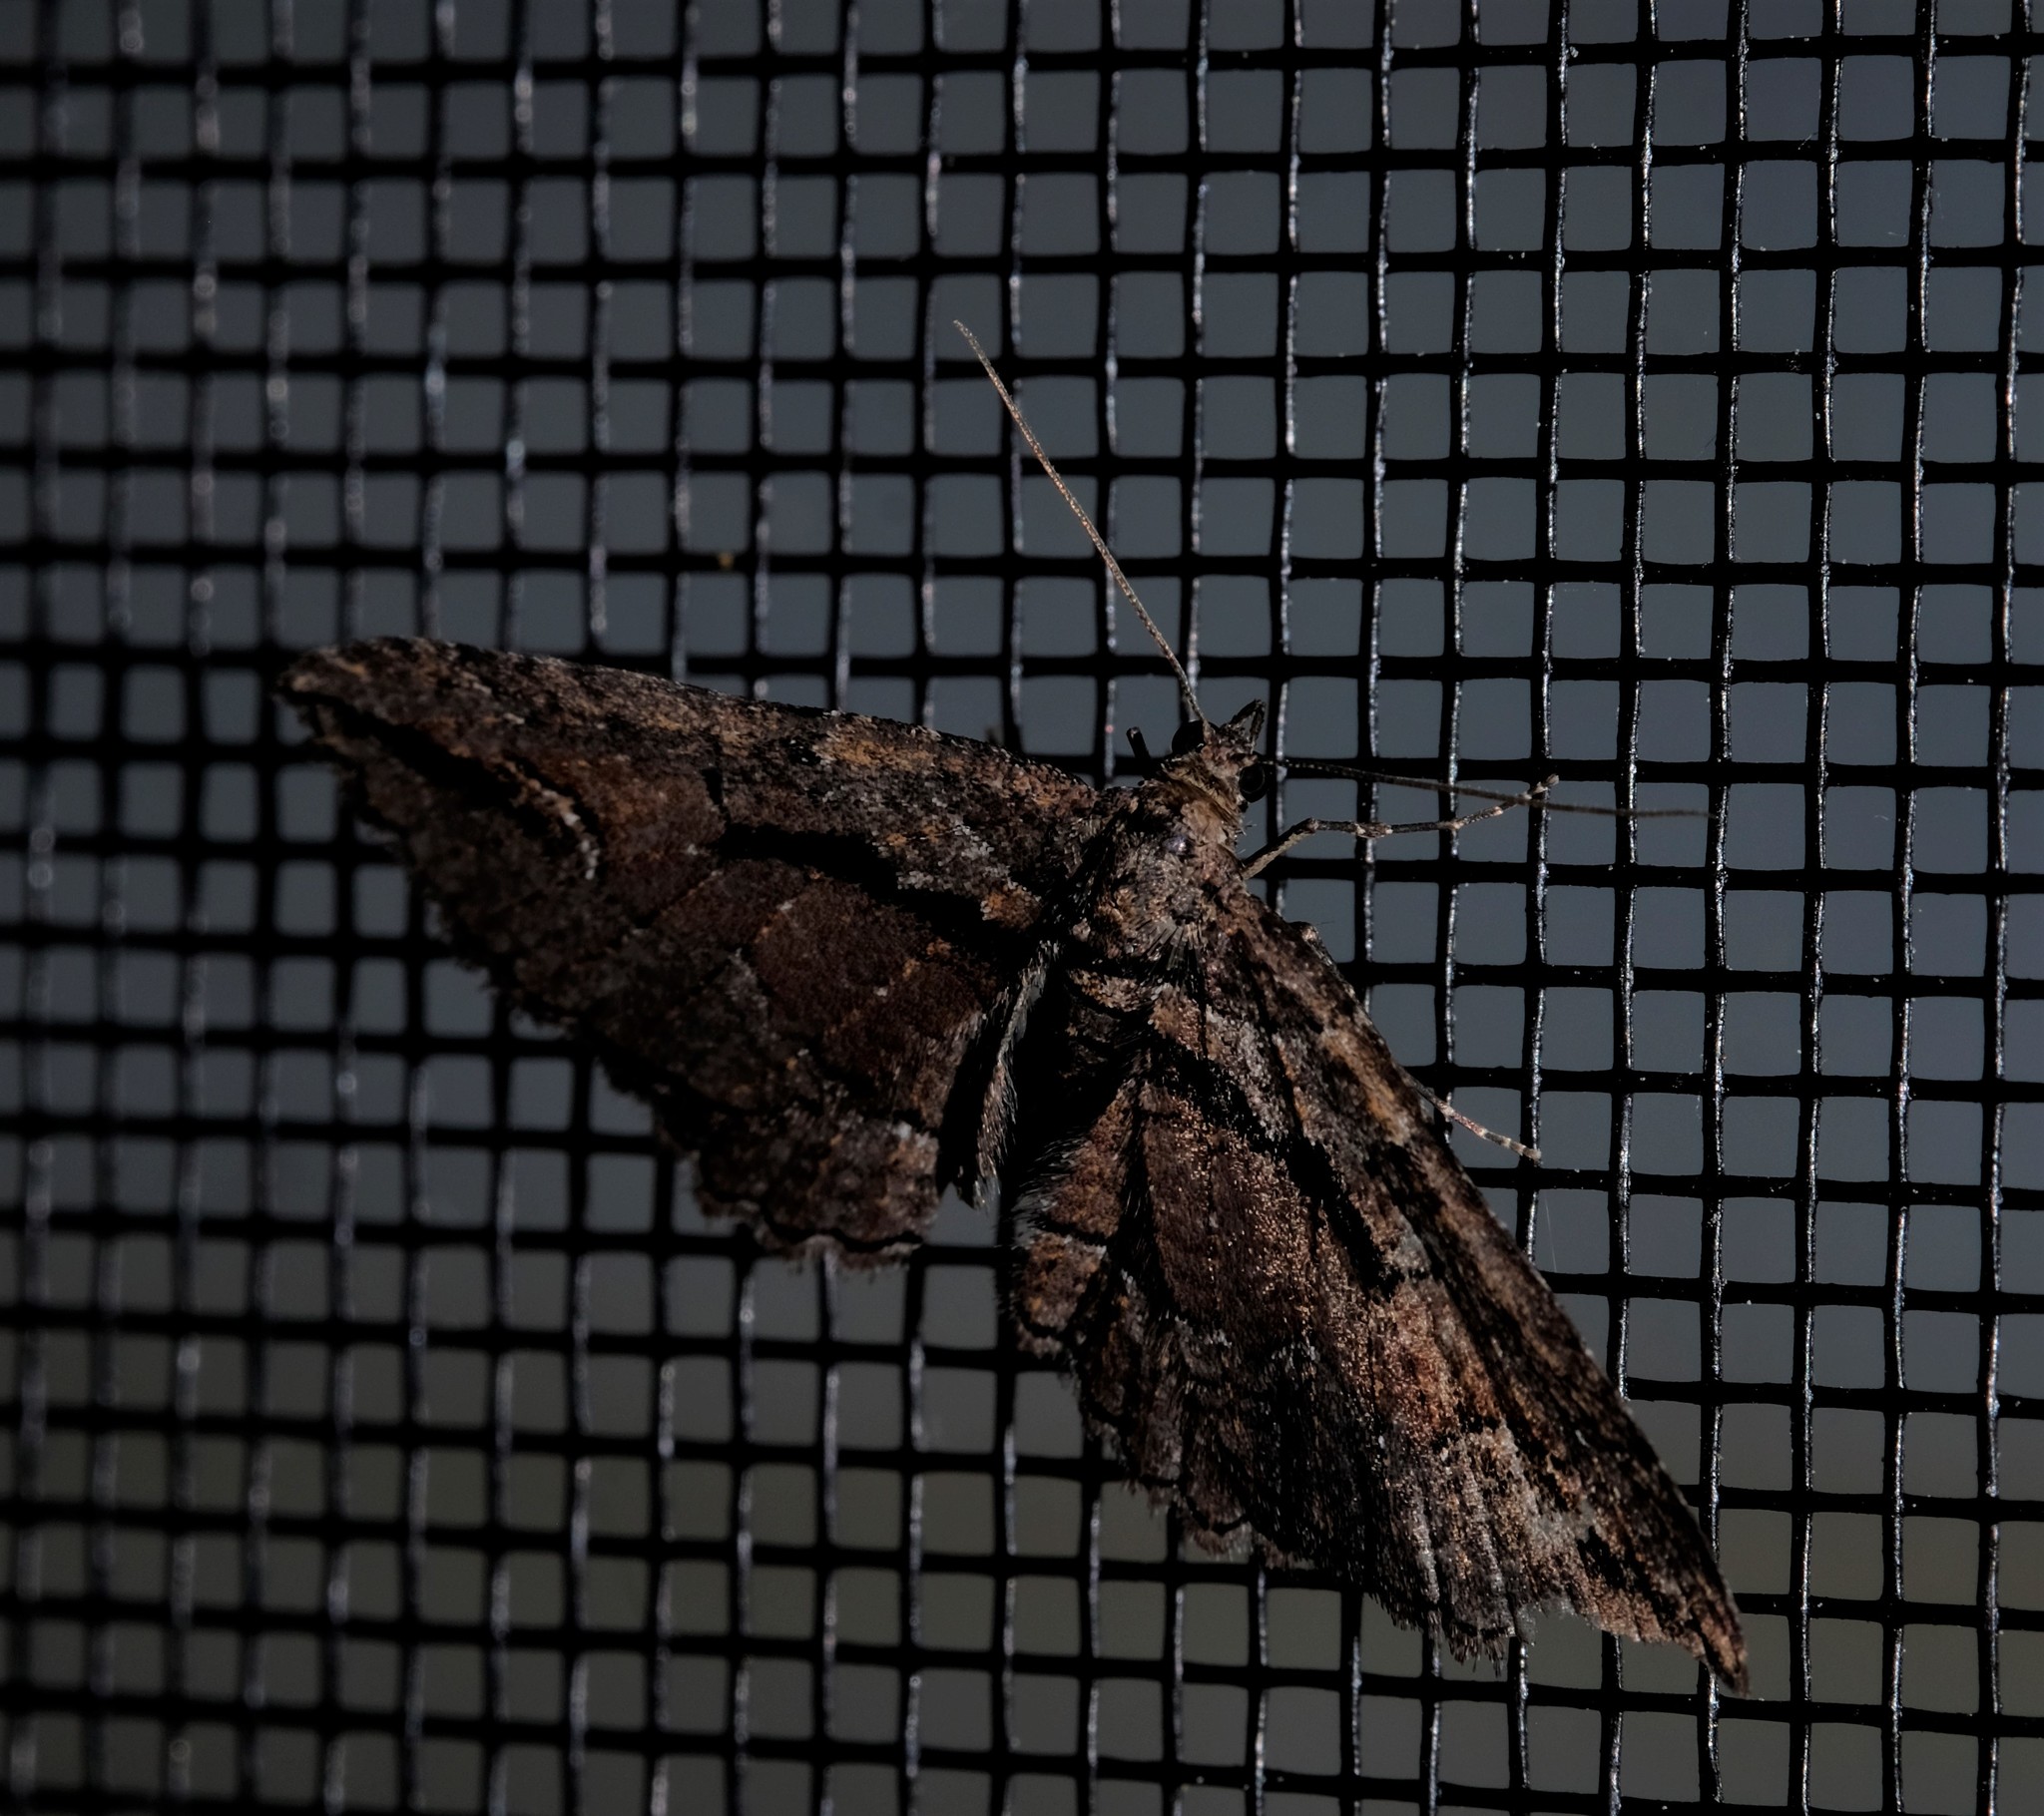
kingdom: Animalia
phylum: Arthropoda
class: Insecta
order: Lepidoptera
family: Geometridae
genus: Chrysolarentia
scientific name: Chrysolarentia plagiocausta
